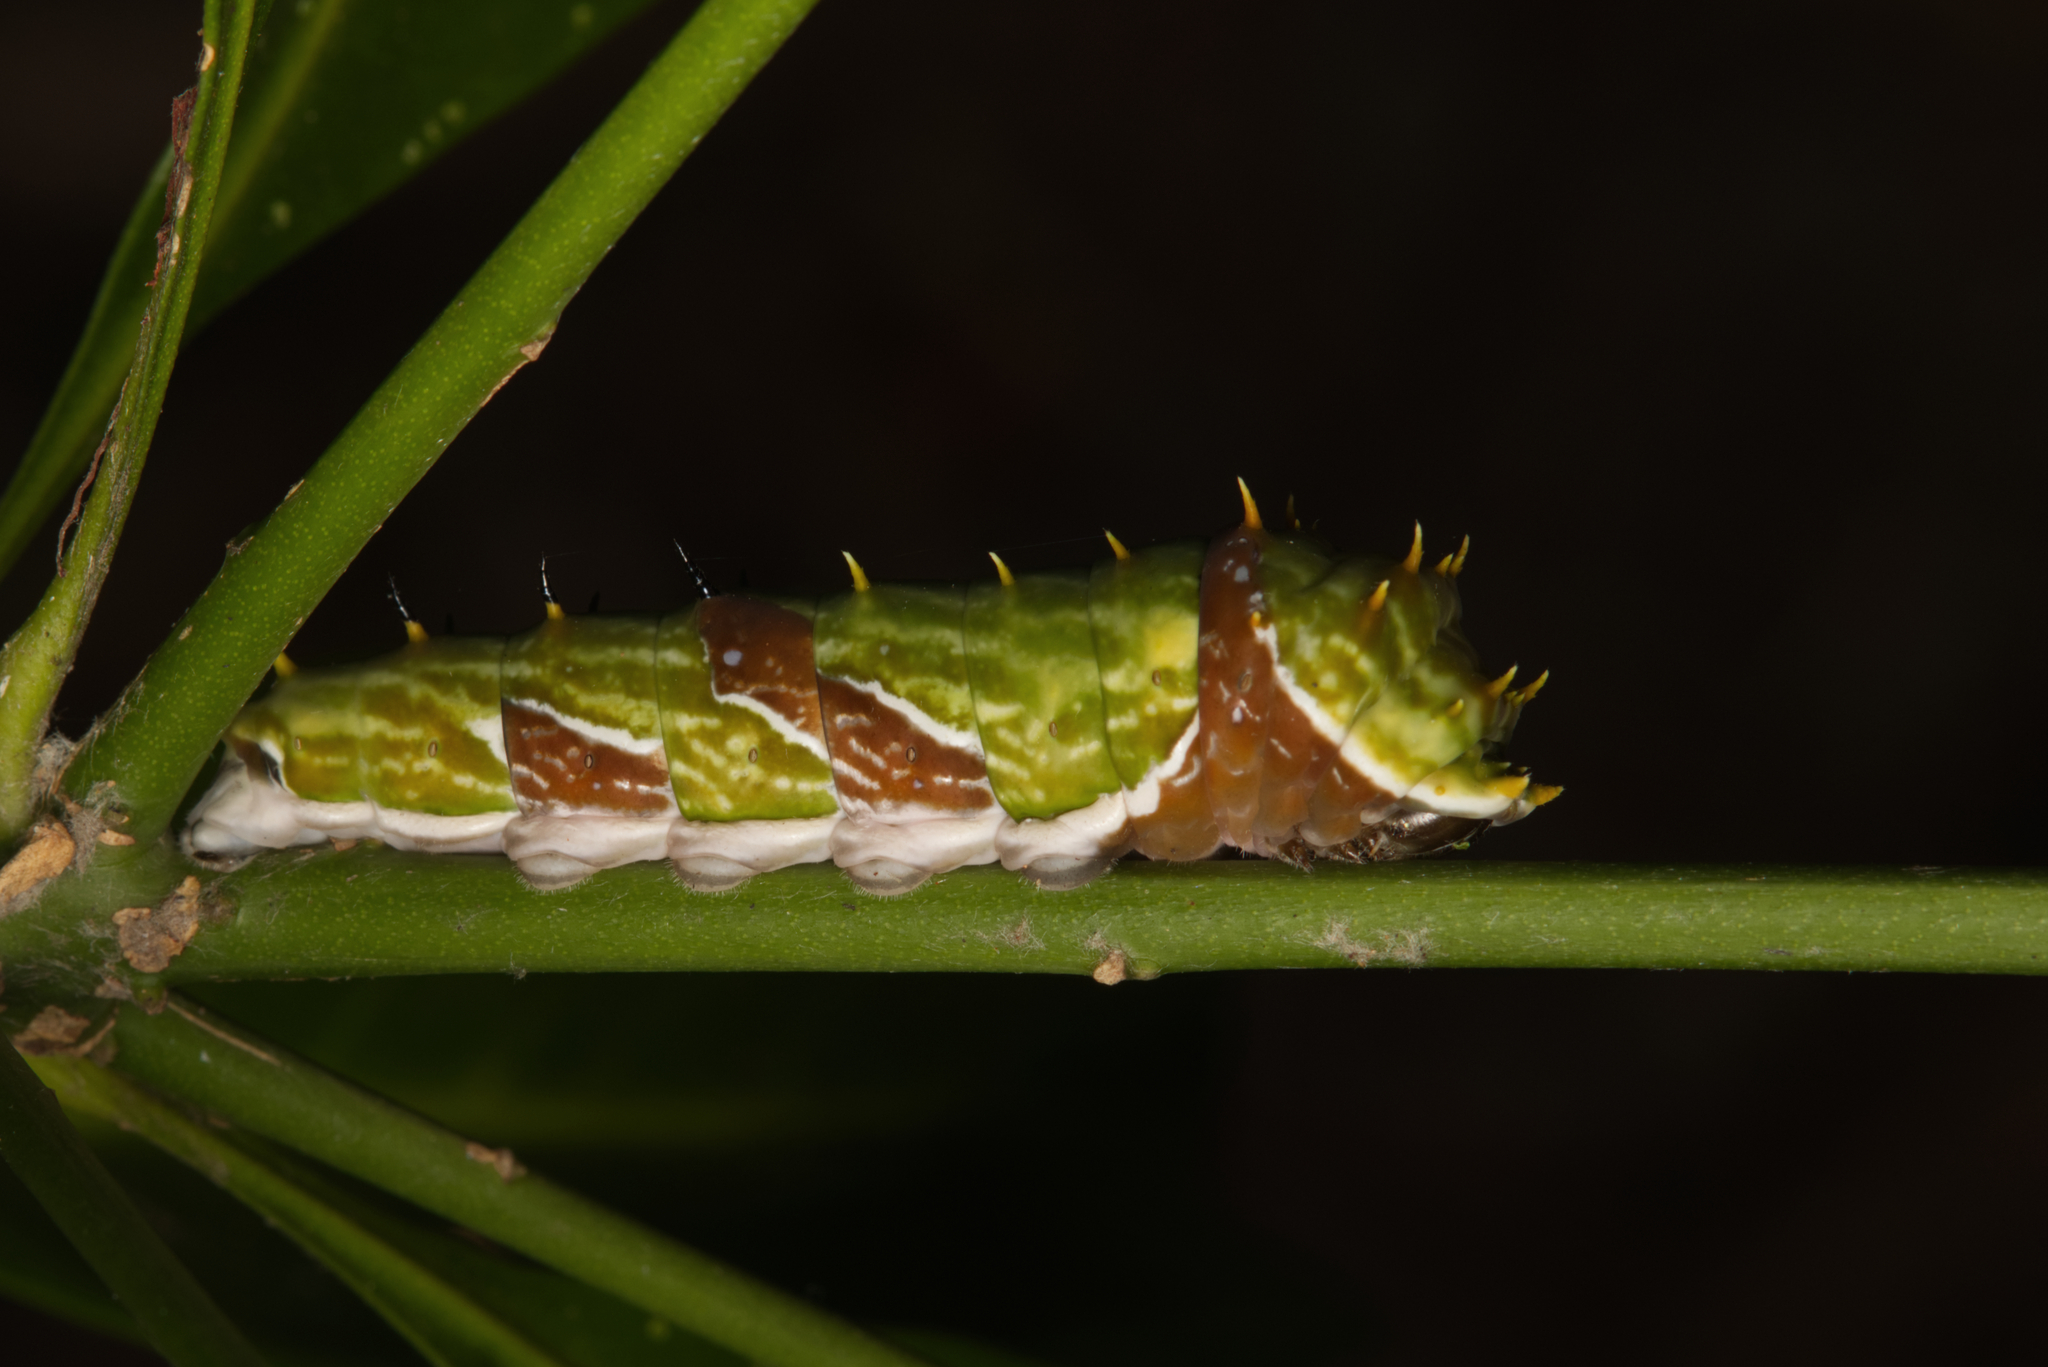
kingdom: Animalia
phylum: Arthropoda
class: Insecta
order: Lepidoptera
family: Papilionidae
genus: Papilio
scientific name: Papilio aegeus
